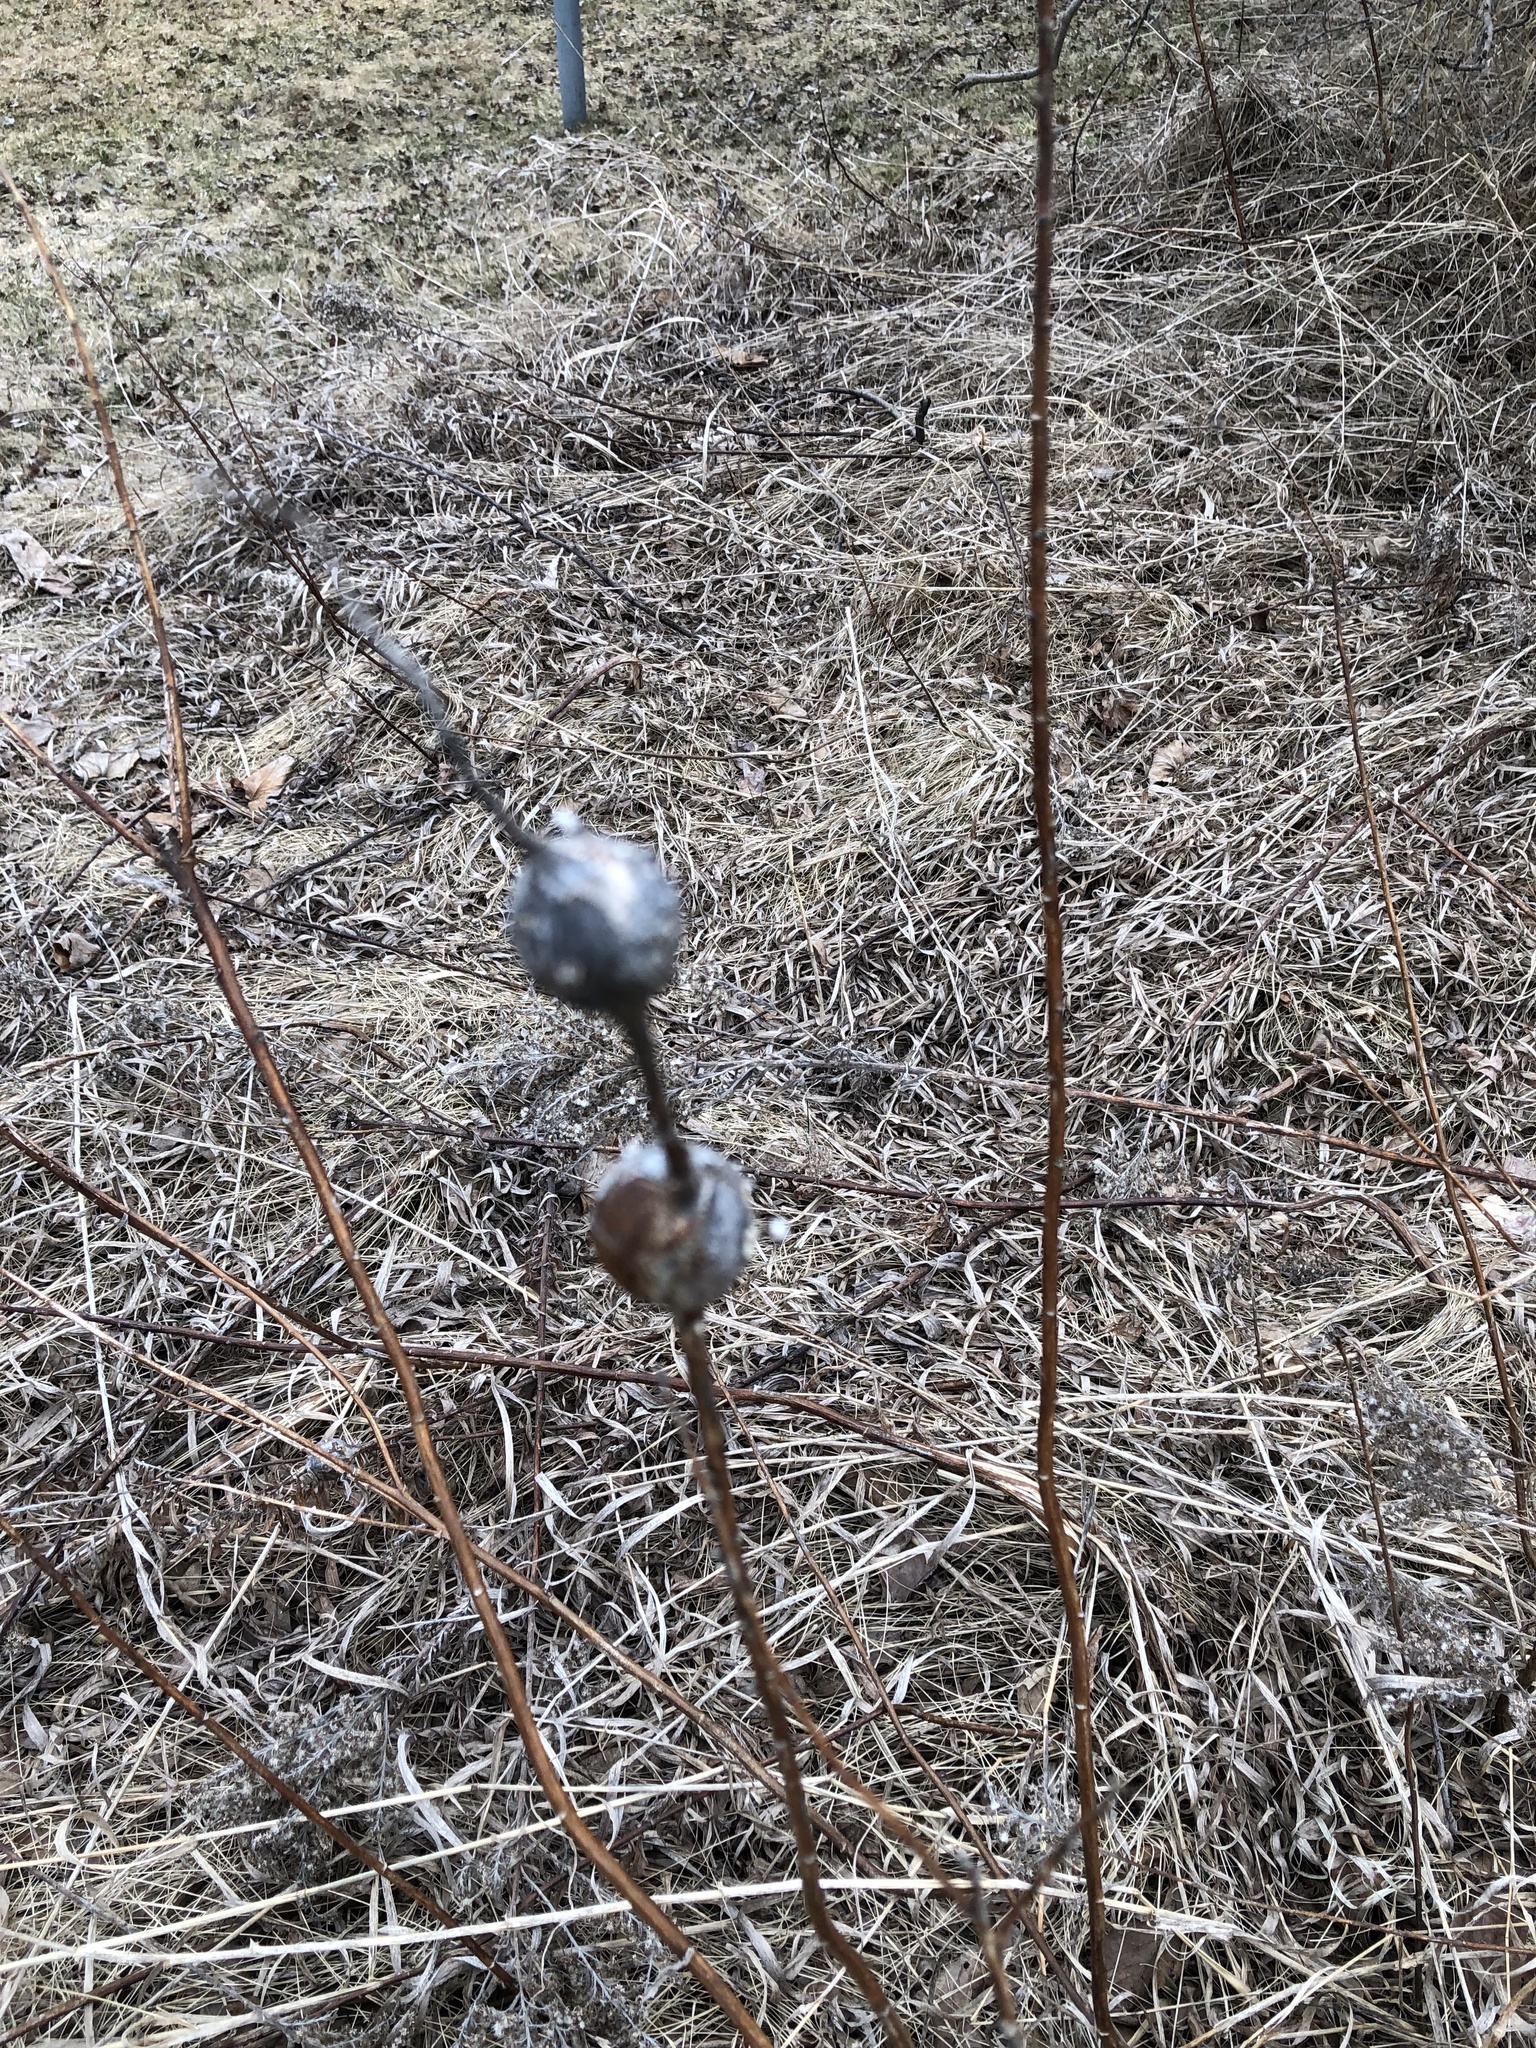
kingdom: Animalia
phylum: Arthropoda
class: Insecta
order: Diptera
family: Tephritidae
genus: Eurosta
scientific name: Eurosta solidaginis
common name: Goldenrod gall fly
